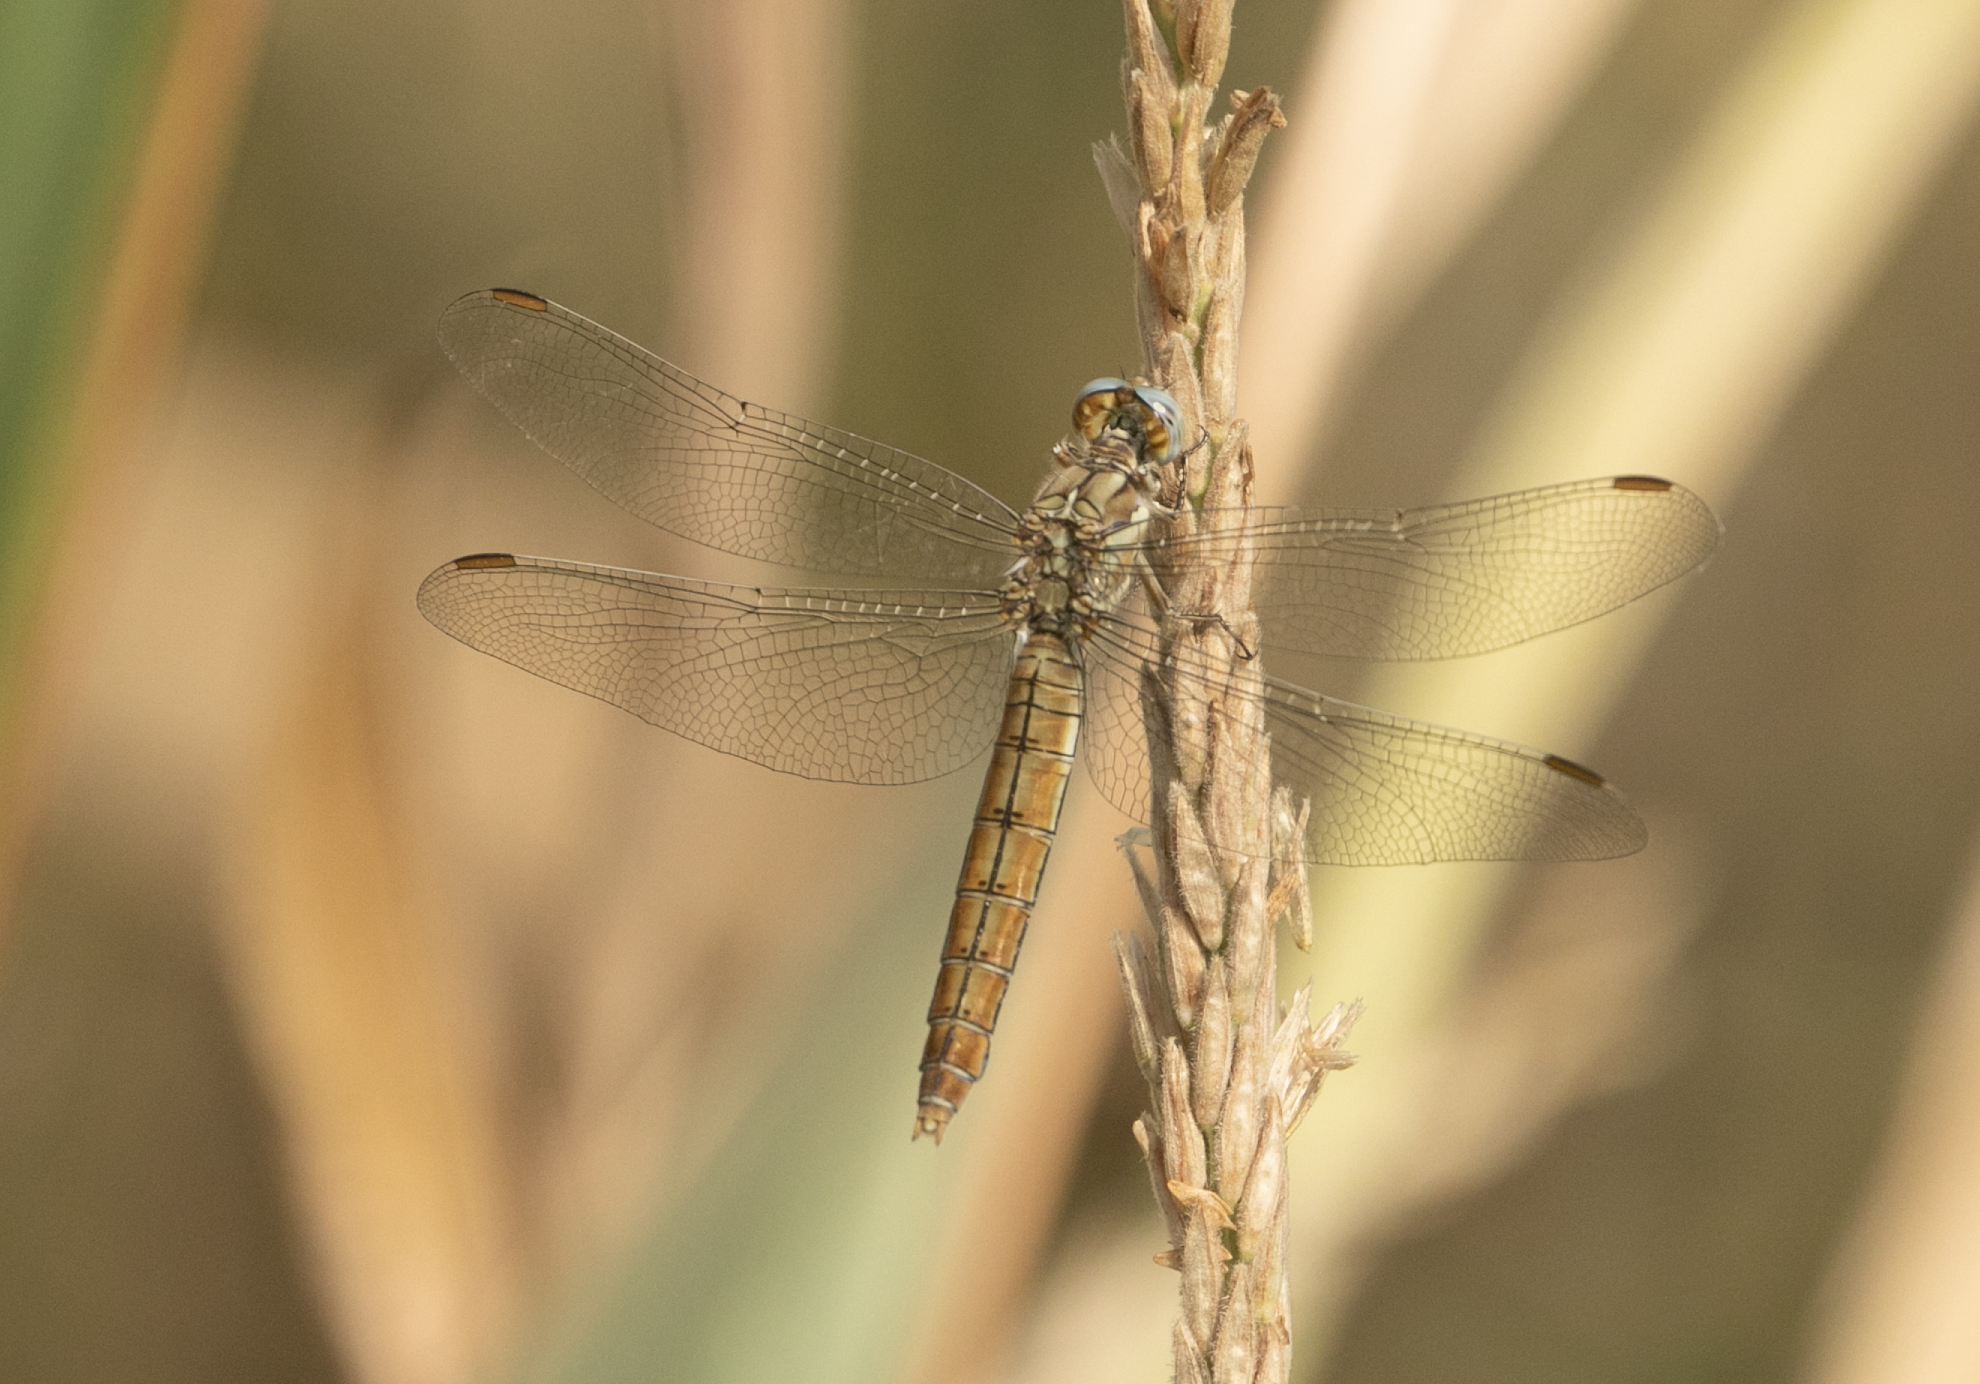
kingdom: Animalia
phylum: Arthropoda
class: Insecta
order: Odonata
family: Libellulidae
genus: Orthetrum
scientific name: Orthetrum brunneum
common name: Southern skimmer
